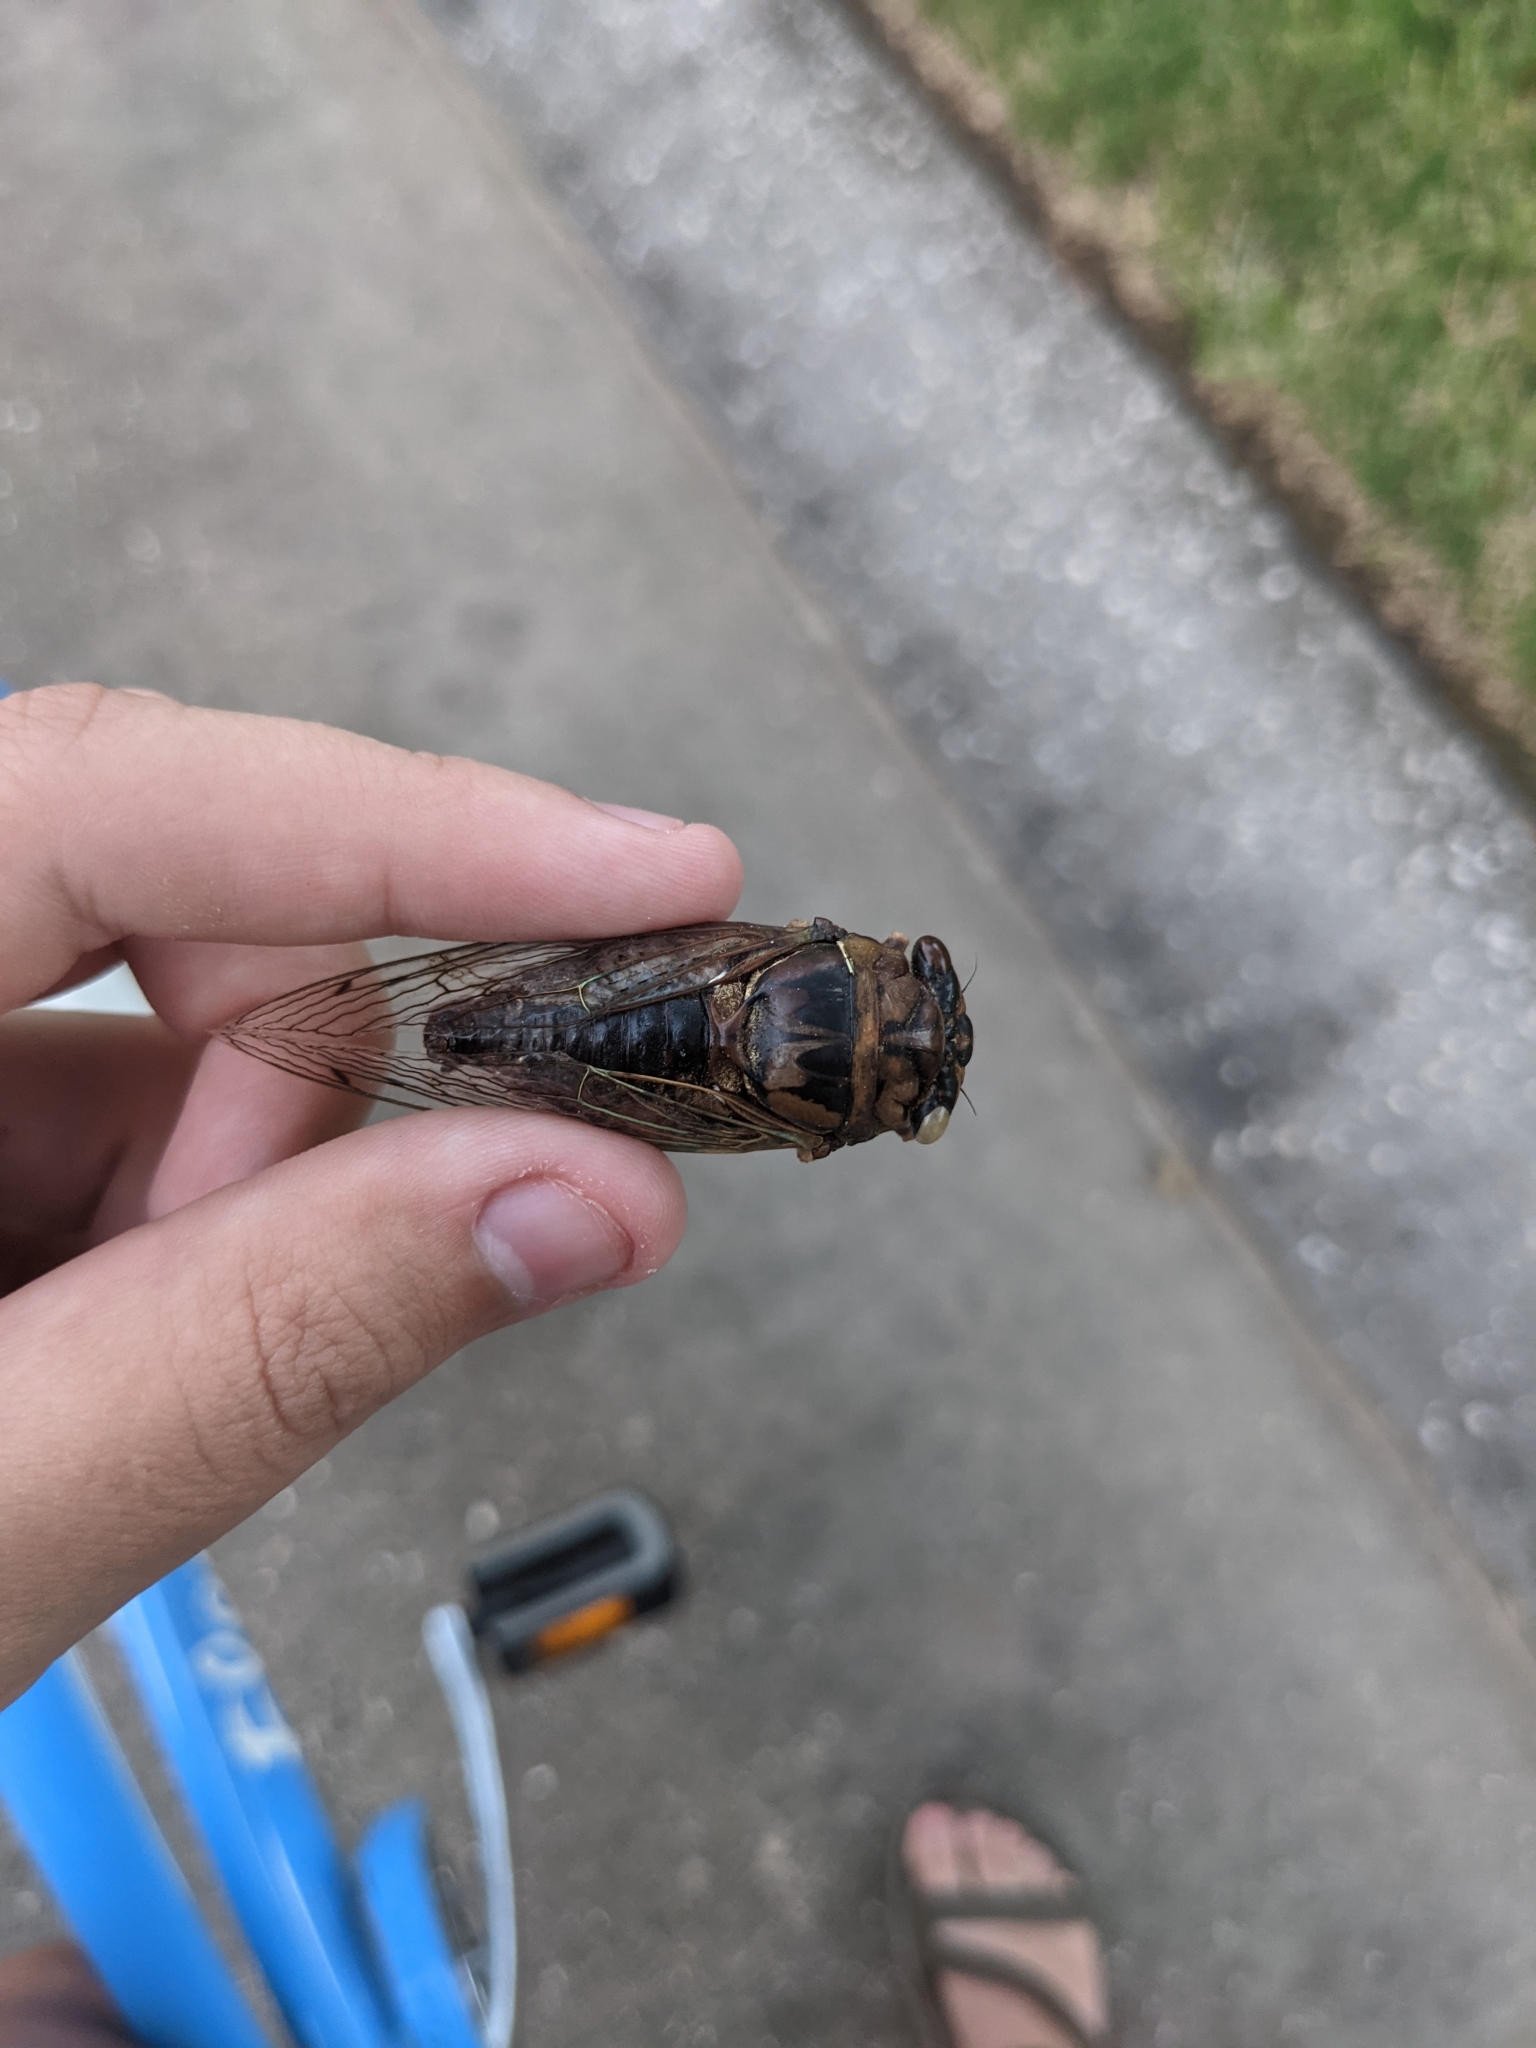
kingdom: Animalia
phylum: Arthropoda
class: Insecta
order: Hemiptera
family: Cicadidae
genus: Megatibicen
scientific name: Megatibicen resh
